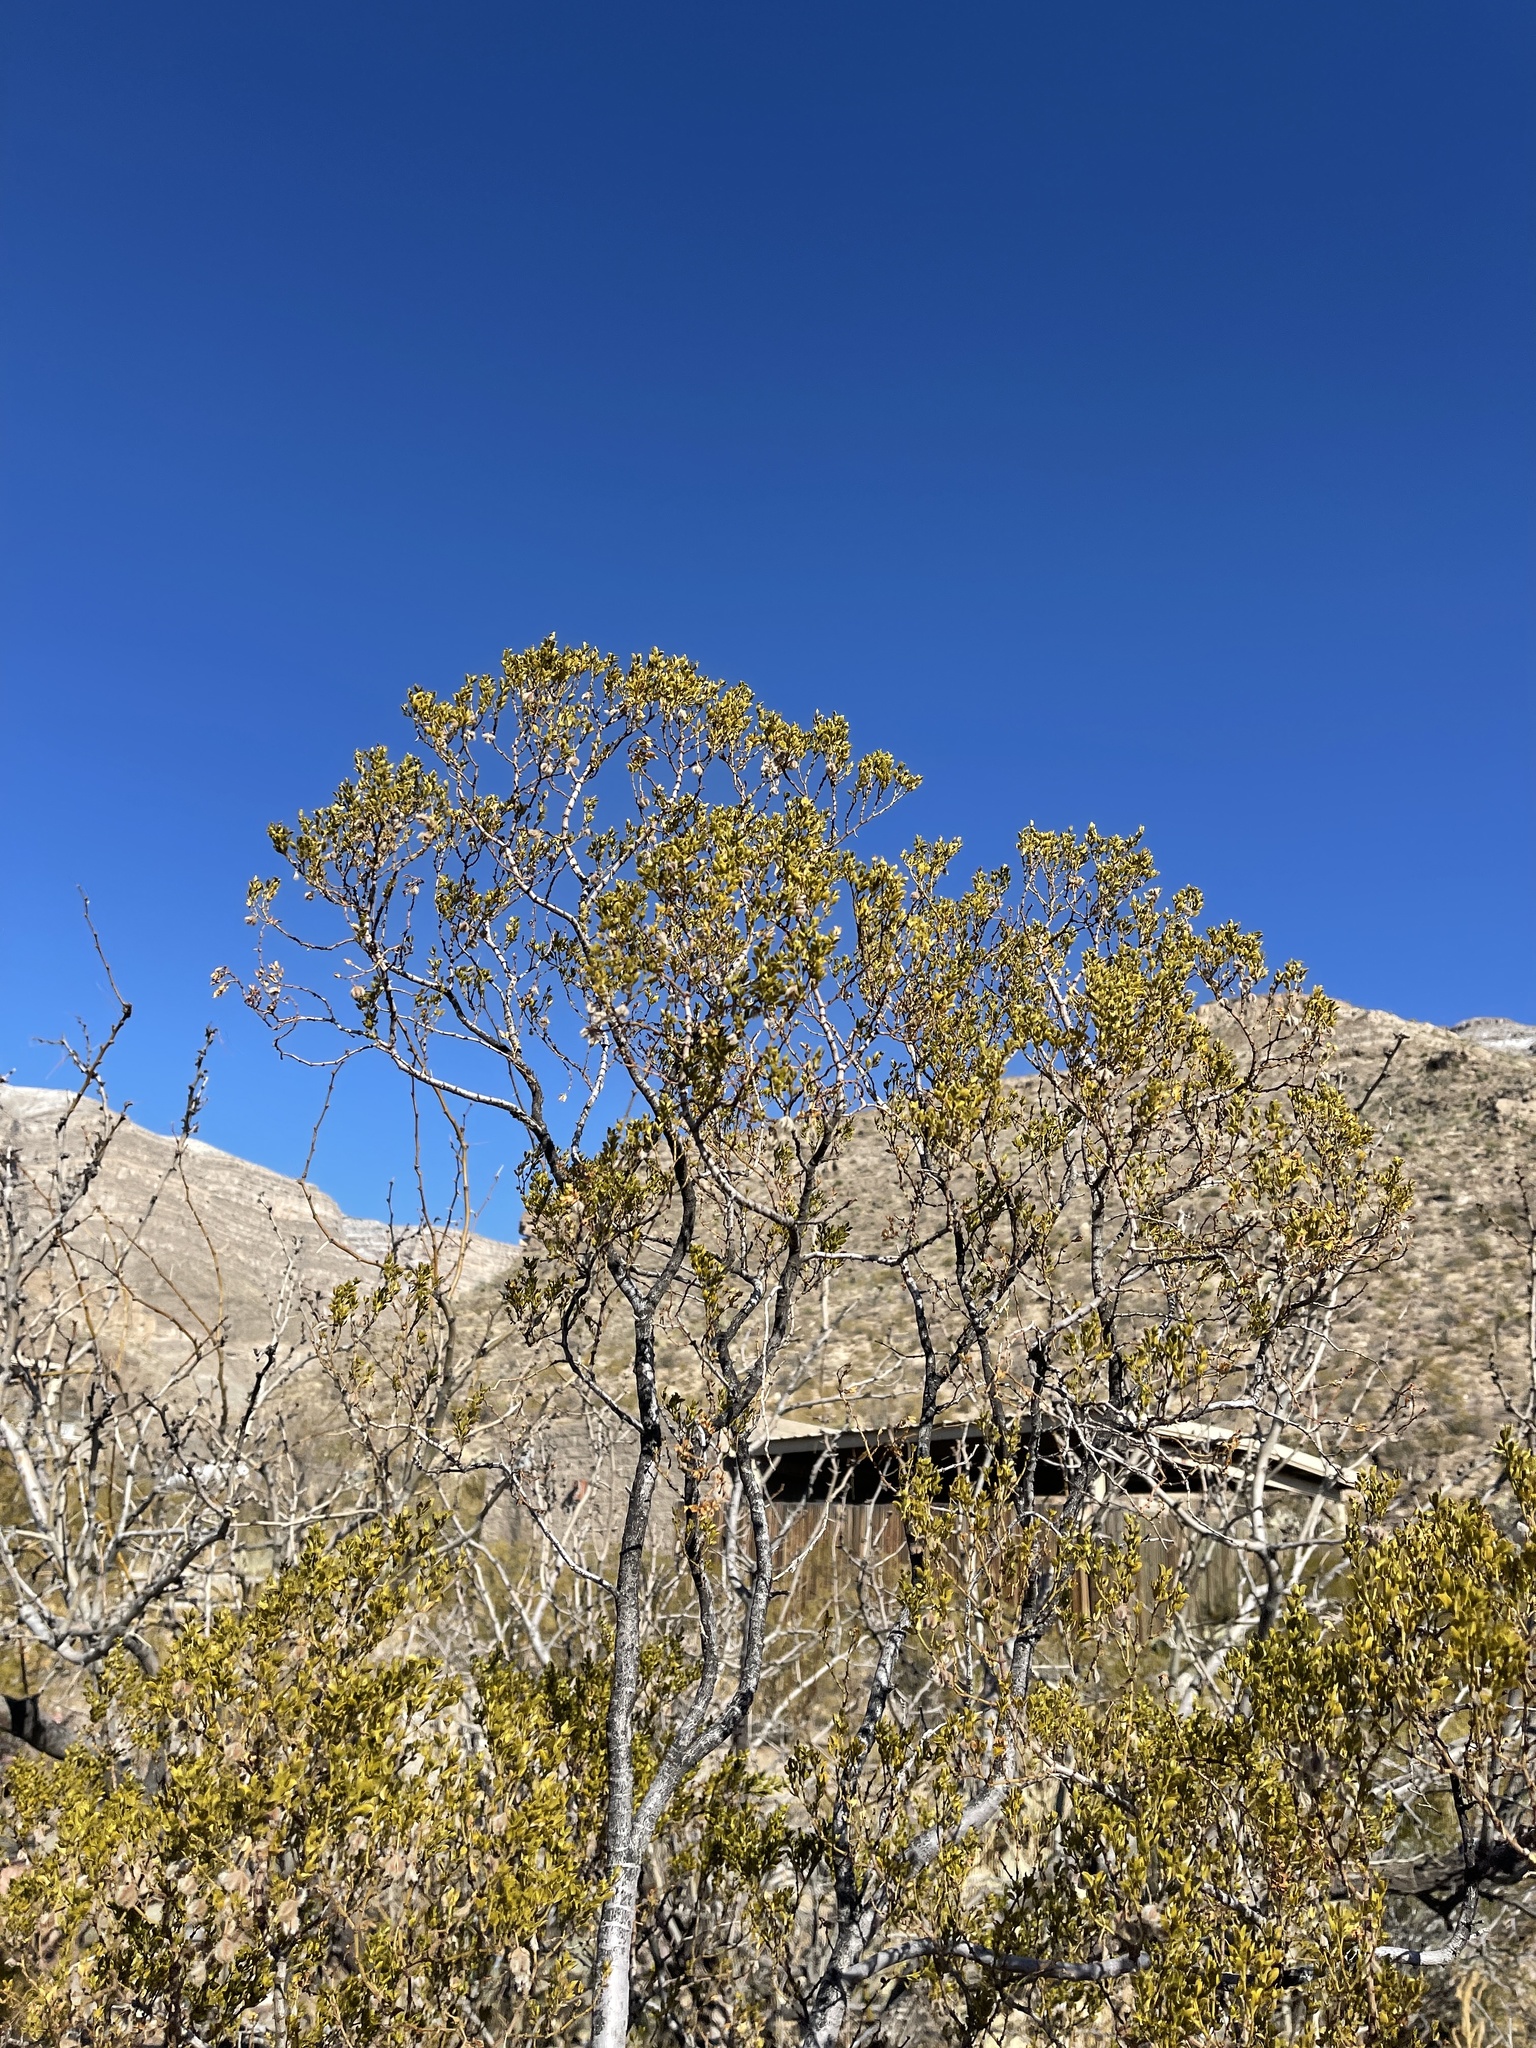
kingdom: Plantae
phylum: Tracheophyta
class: Magnoliopsida
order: Zygophyllales
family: Zygophyllaceae
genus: Larrea
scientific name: Larrea tridentata
